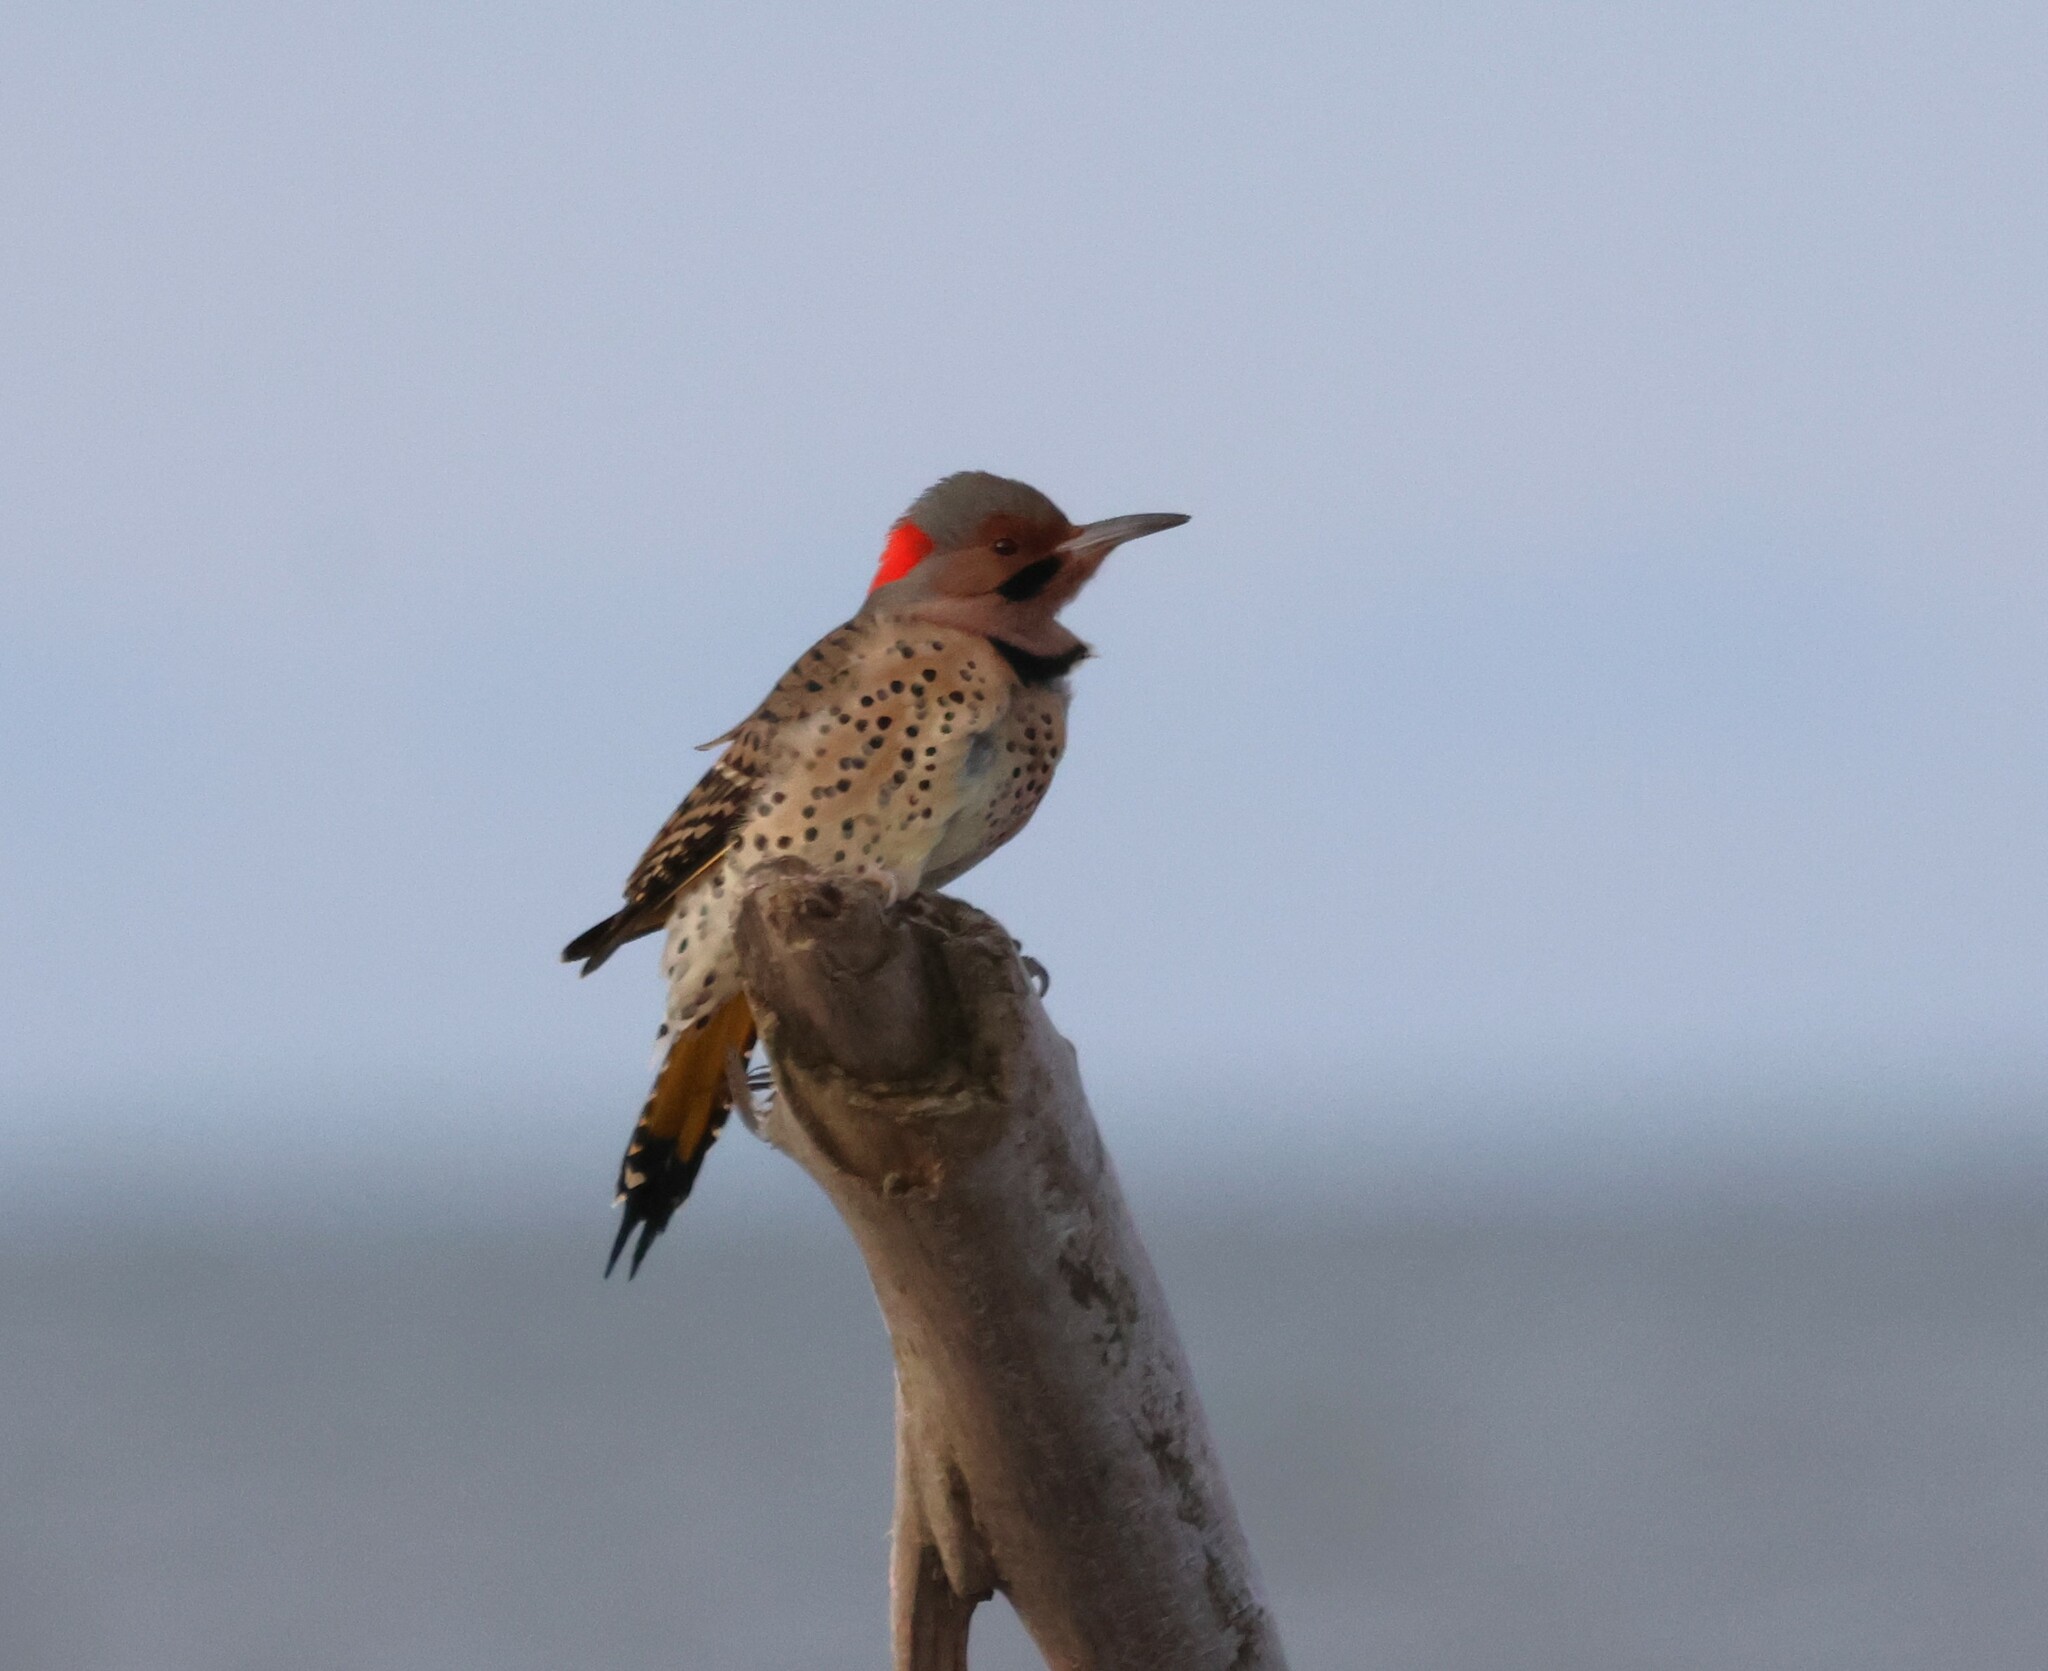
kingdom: Animalia
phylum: Chordata
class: Aves
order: Piciformes
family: Picidae
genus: Colaptes
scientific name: Colaptes auratus
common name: Northern flicker
